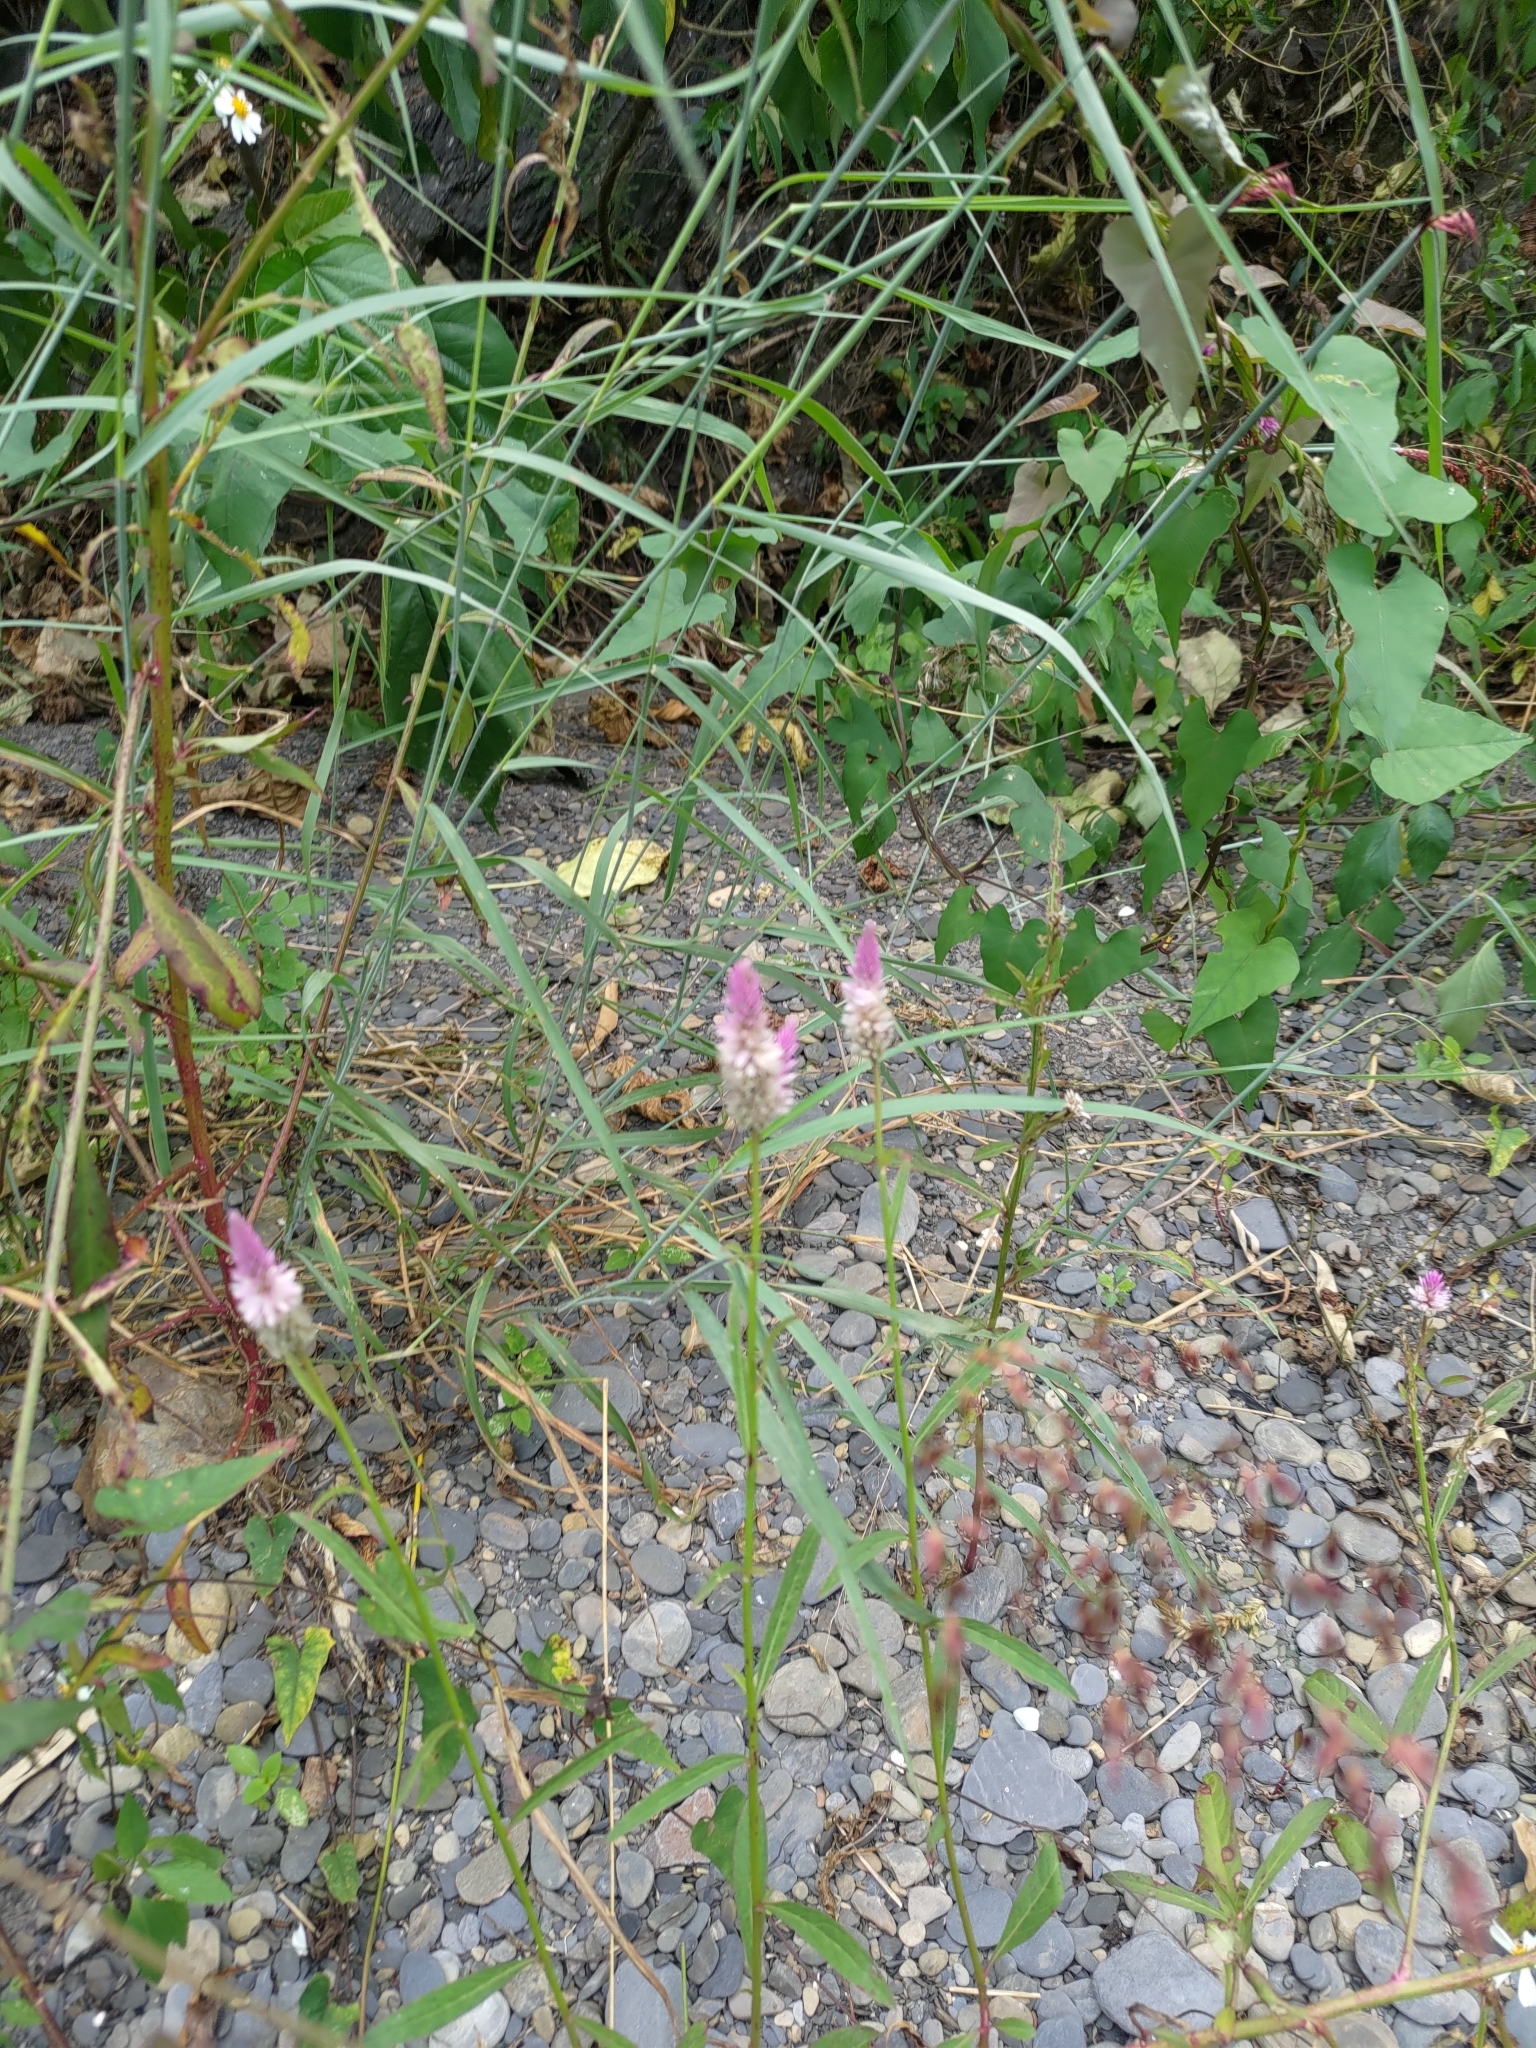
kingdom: Plantae
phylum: Tracheophyta
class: Magnoliopsida
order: Caryophyllales
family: Amaranthaceae
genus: Celosia
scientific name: Celosia argentea
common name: Feather cockscomb
